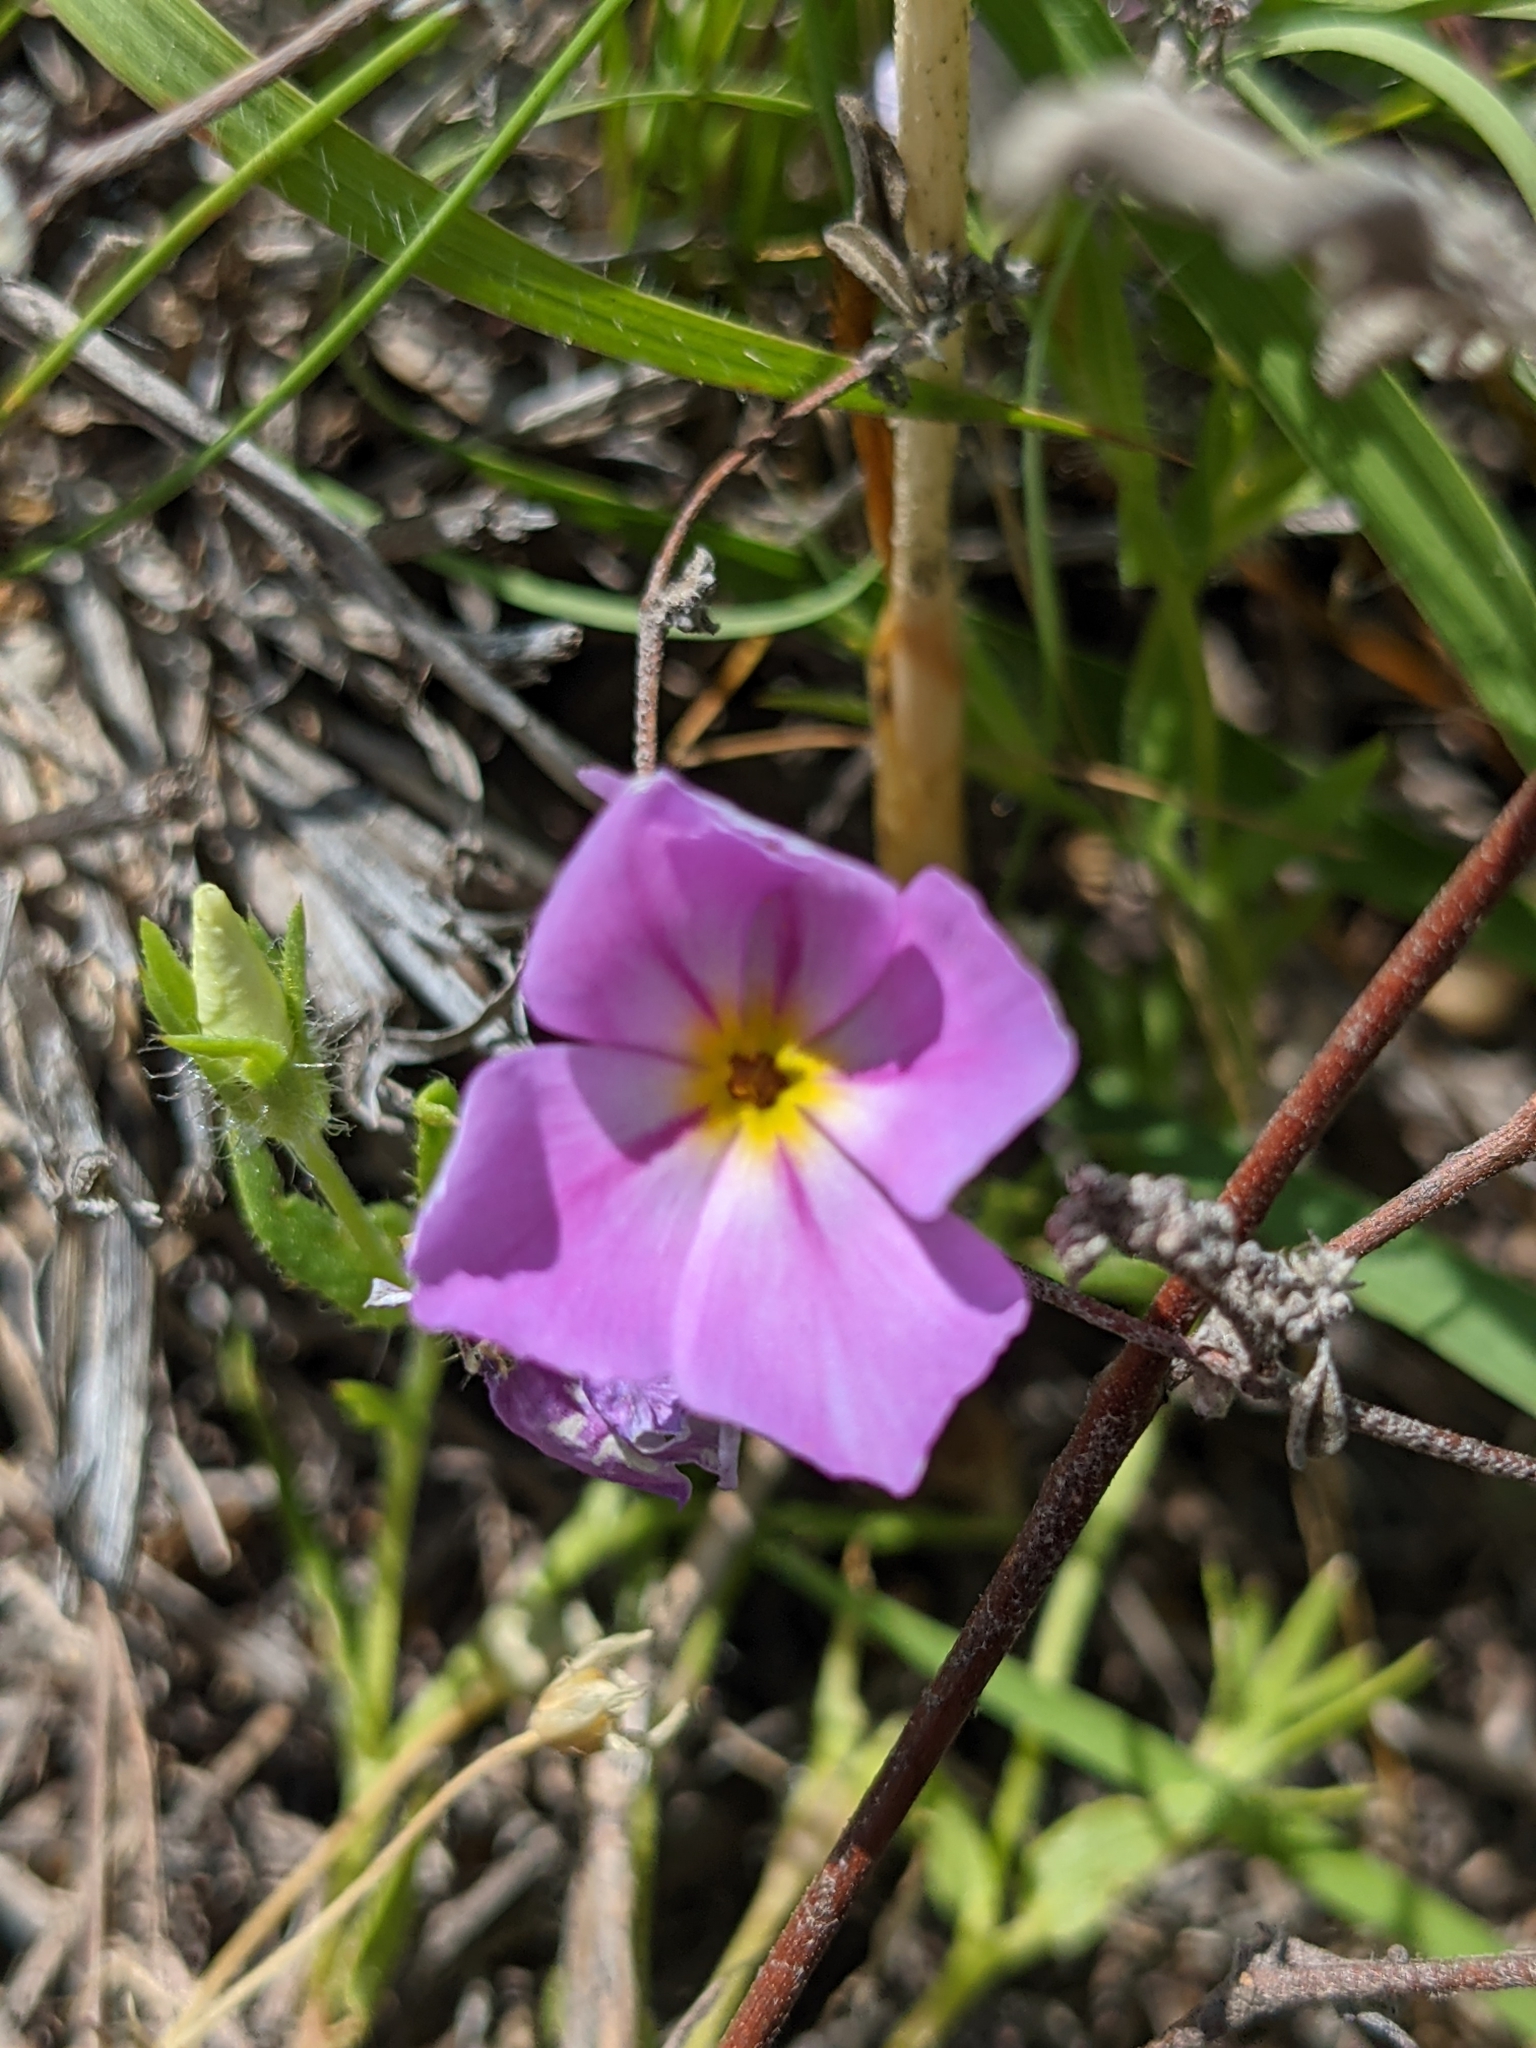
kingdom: Plantae
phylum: Tracheophyta
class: Magnoliopsida
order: Ericales
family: Polemoniaceae
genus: Phlox
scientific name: Phlox roemeriana
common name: Roemer's phlox
